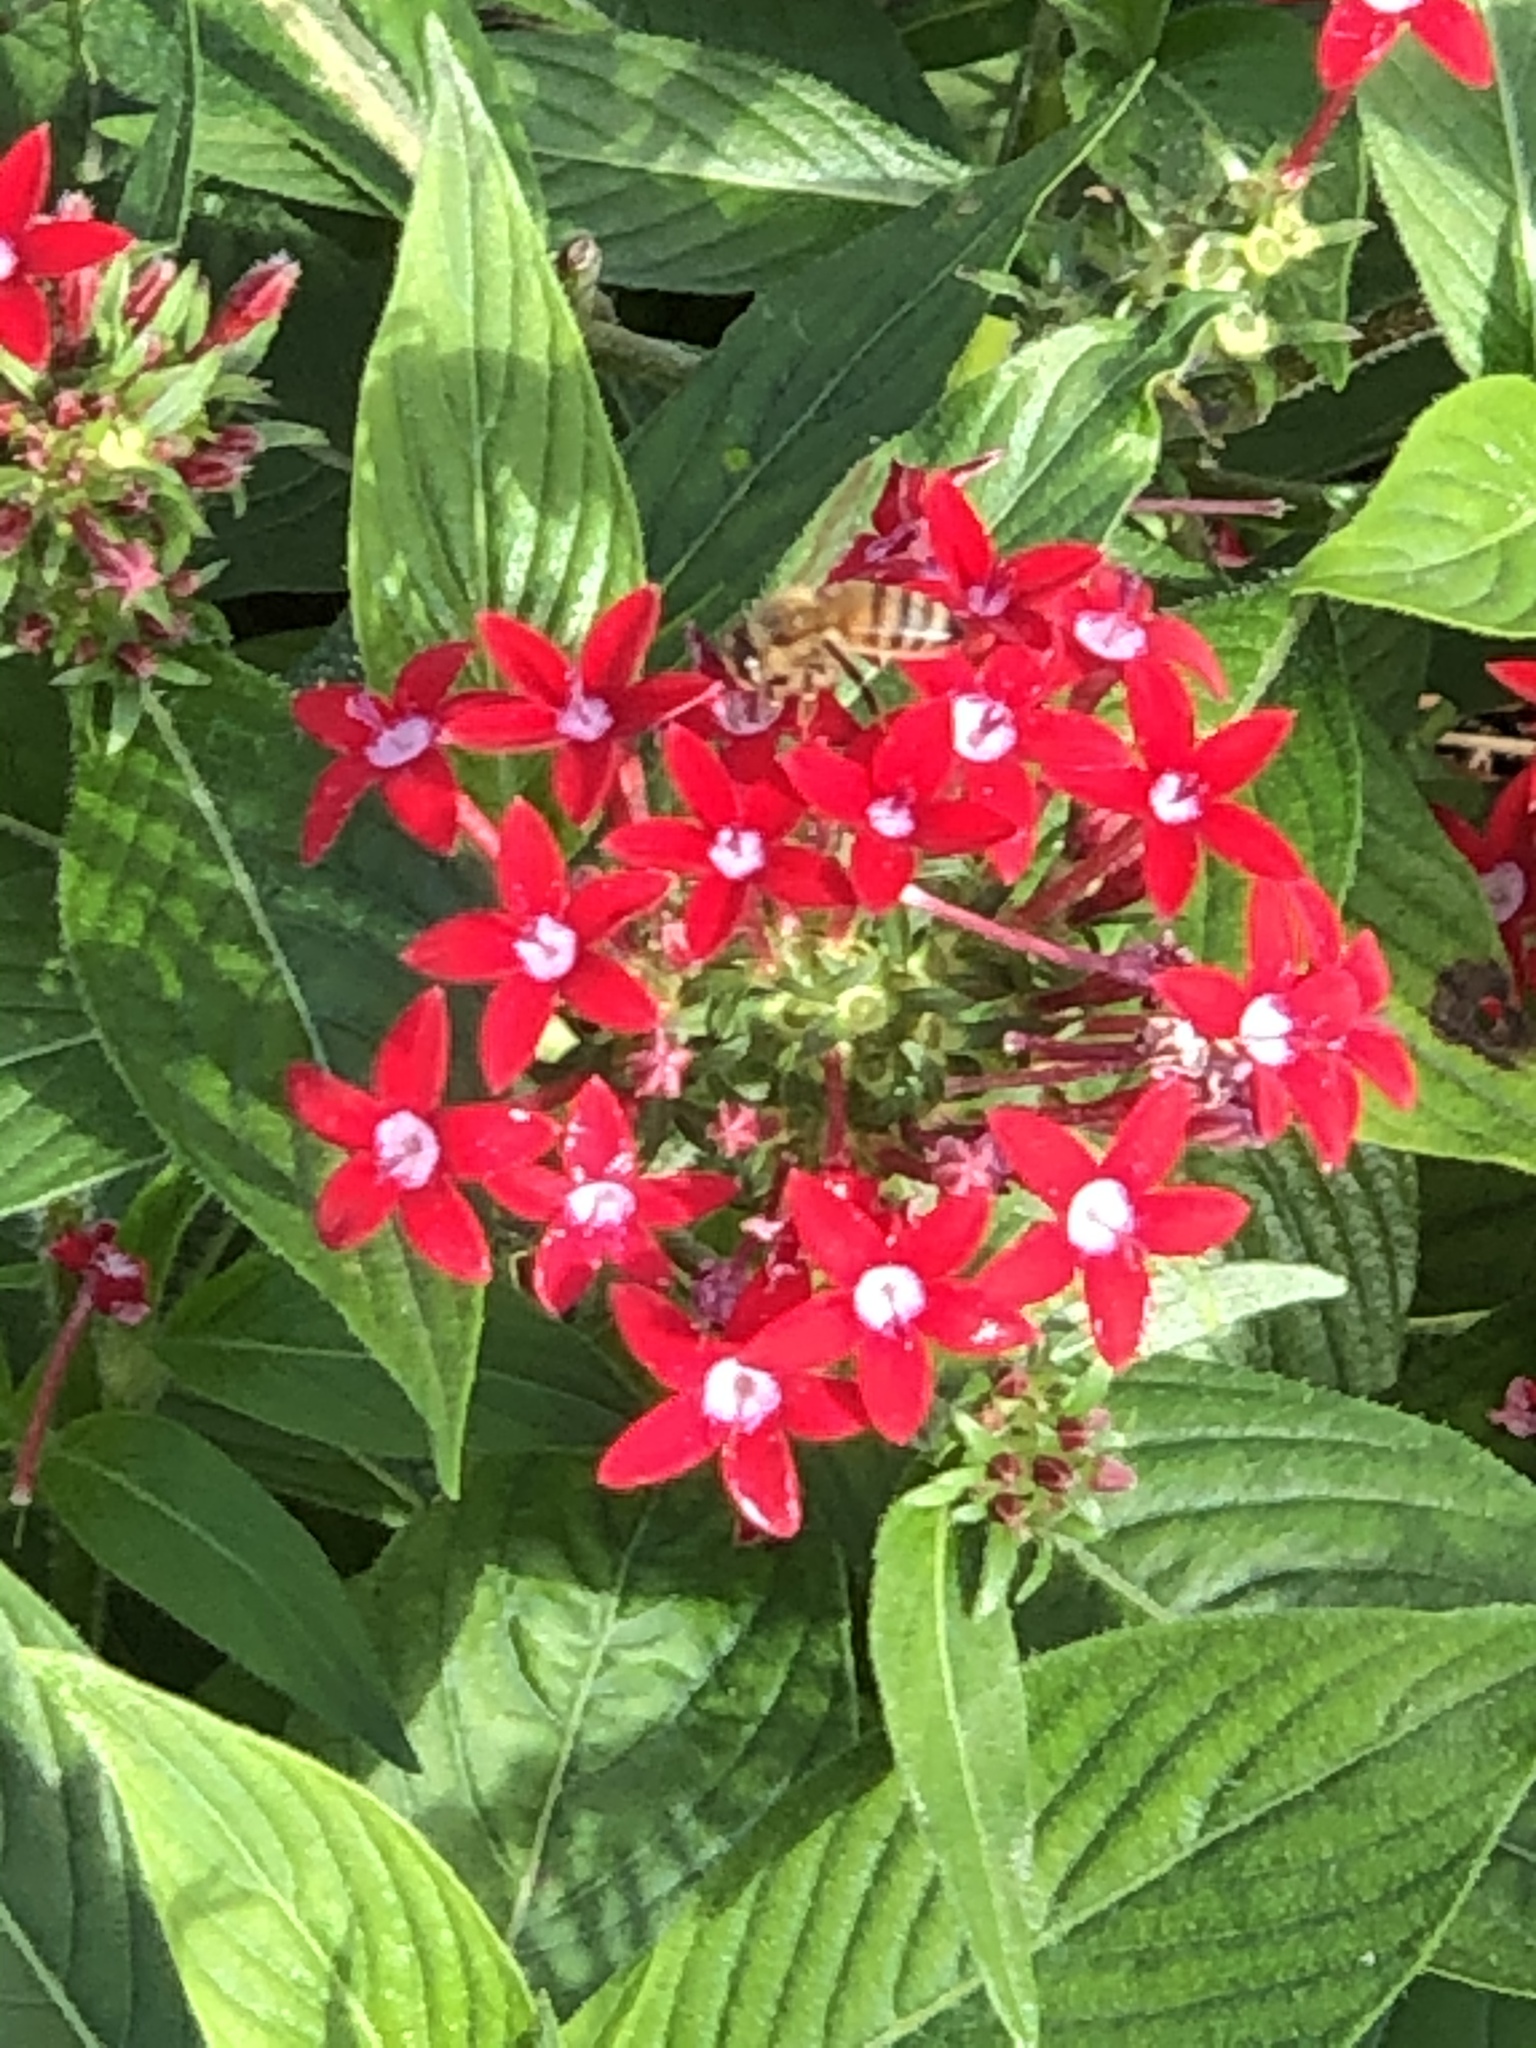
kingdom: Animalia
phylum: Arthropoda
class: Insecta
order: Hymenoptera
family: Apidae
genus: Apis
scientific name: Apis mellifera
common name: Honey bee
